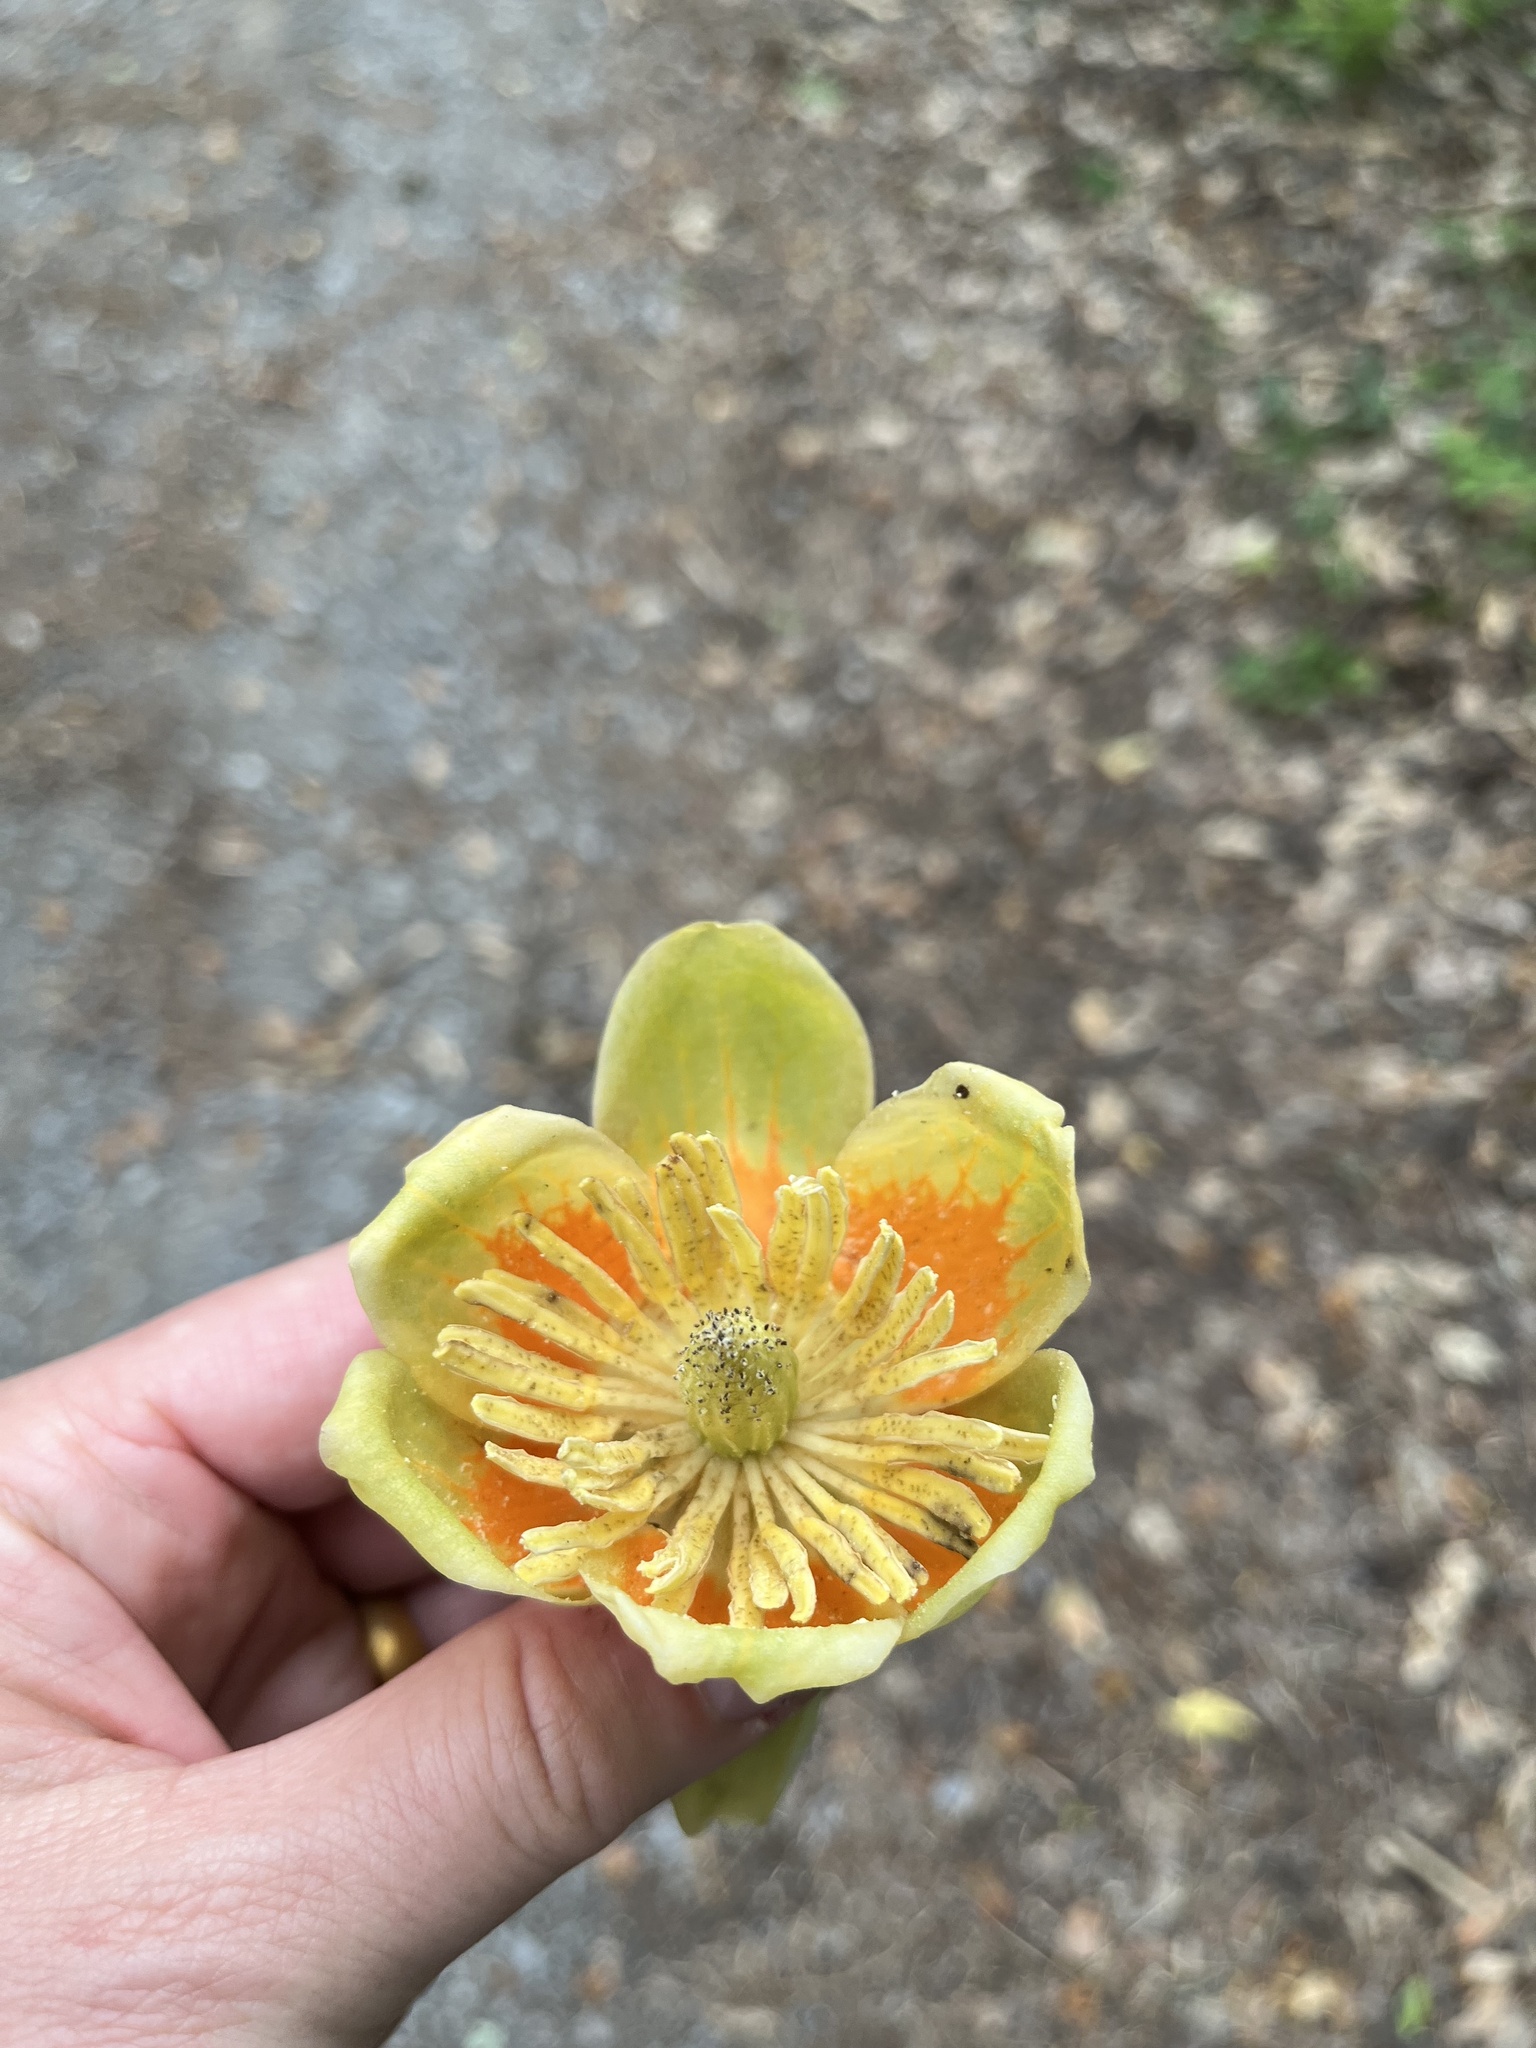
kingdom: Plantae
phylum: Tracheophyta
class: Magnoliopsida
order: Magnoliales
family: Magnoliaceae
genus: Liriodendron
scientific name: Liriodendron tulipifera
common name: Tulip tree
